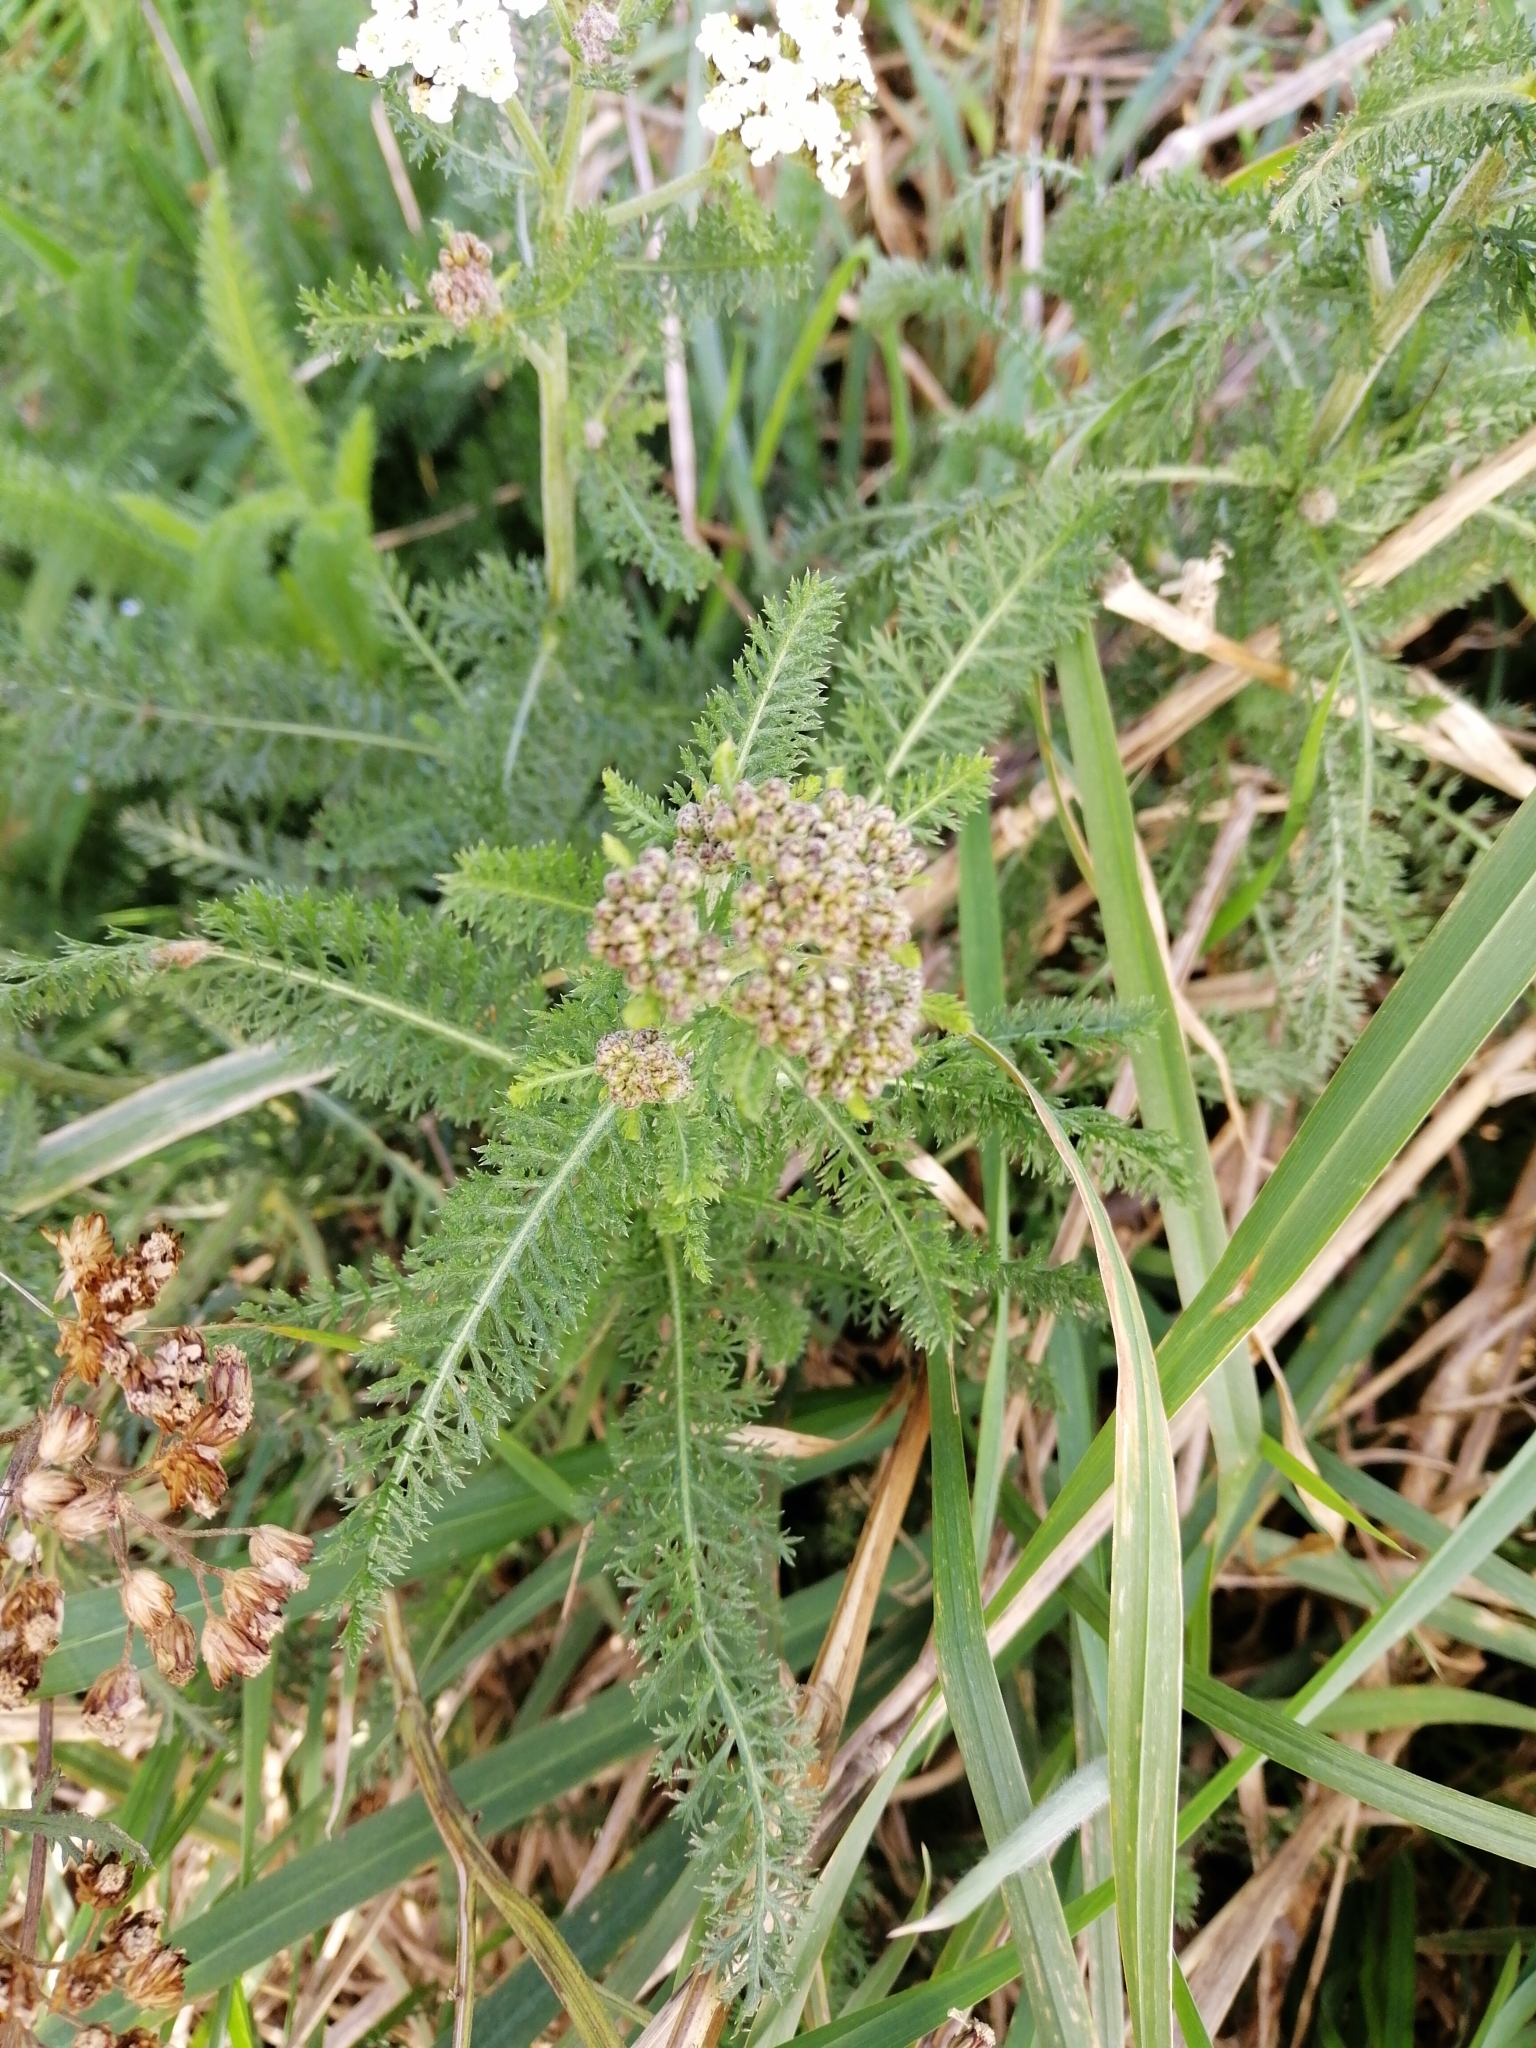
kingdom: Plantae
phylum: Tracheophyta
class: Magnoliopsida
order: Asterales
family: Asteraceae
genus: Achillea
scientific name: Achillea millefolium
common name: Yarrow
